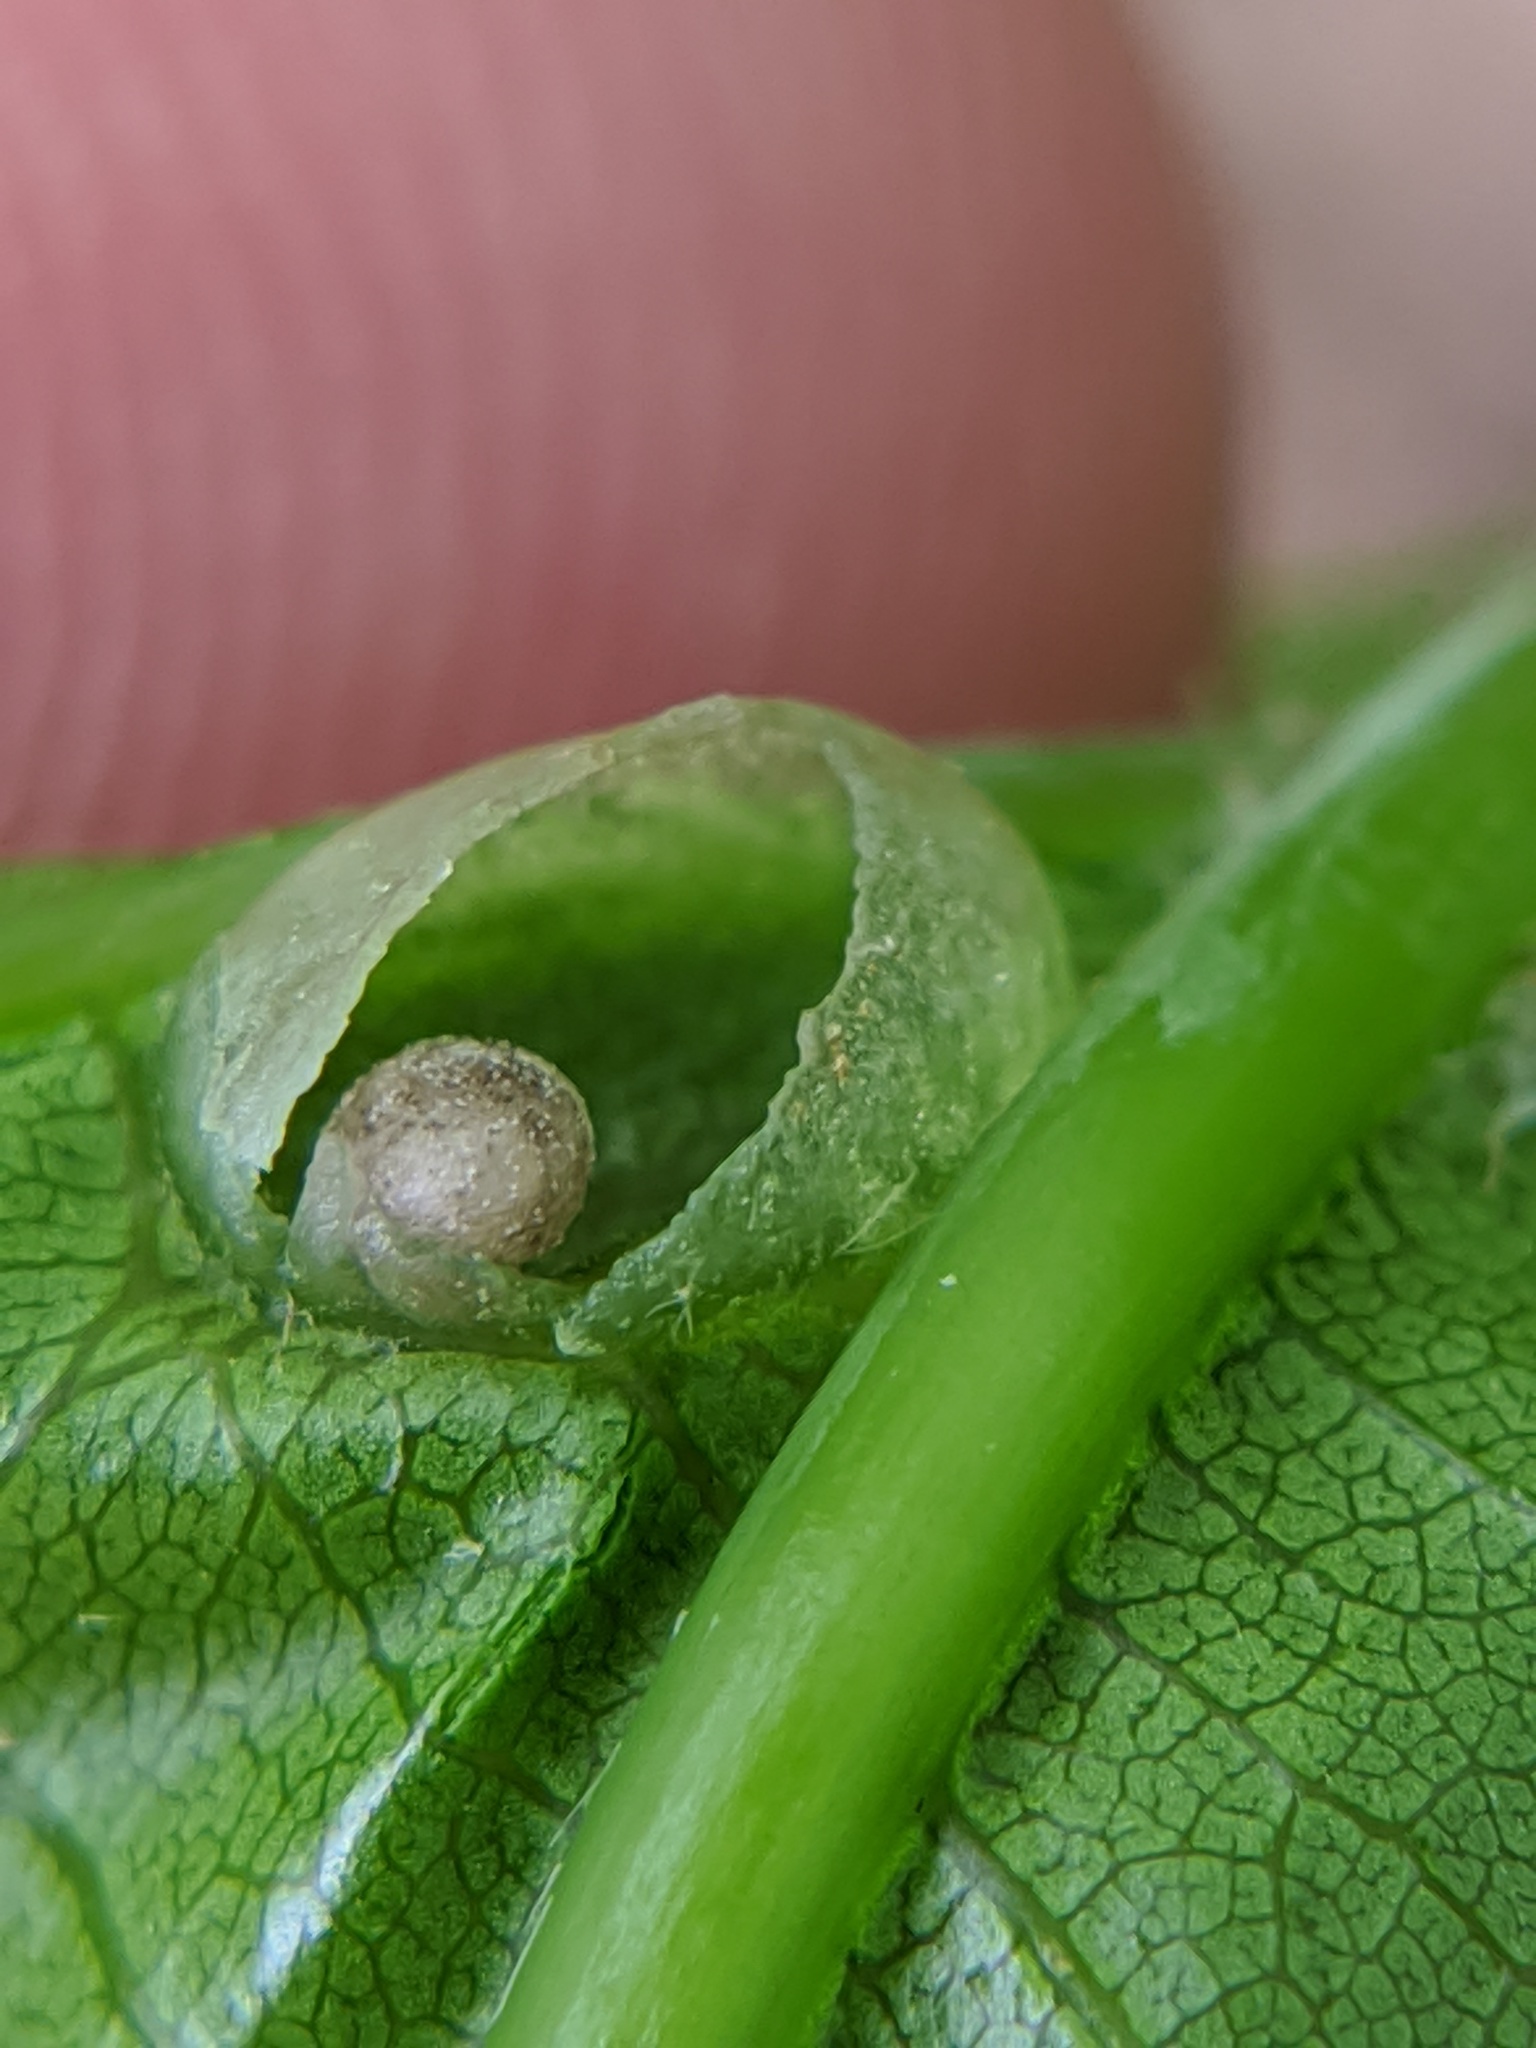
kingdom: Animalia
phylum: Arthropoda
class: Insecta
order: Hymenoptera
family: Cynipidae
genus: Dryocosmus
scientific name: Dryocosmus
